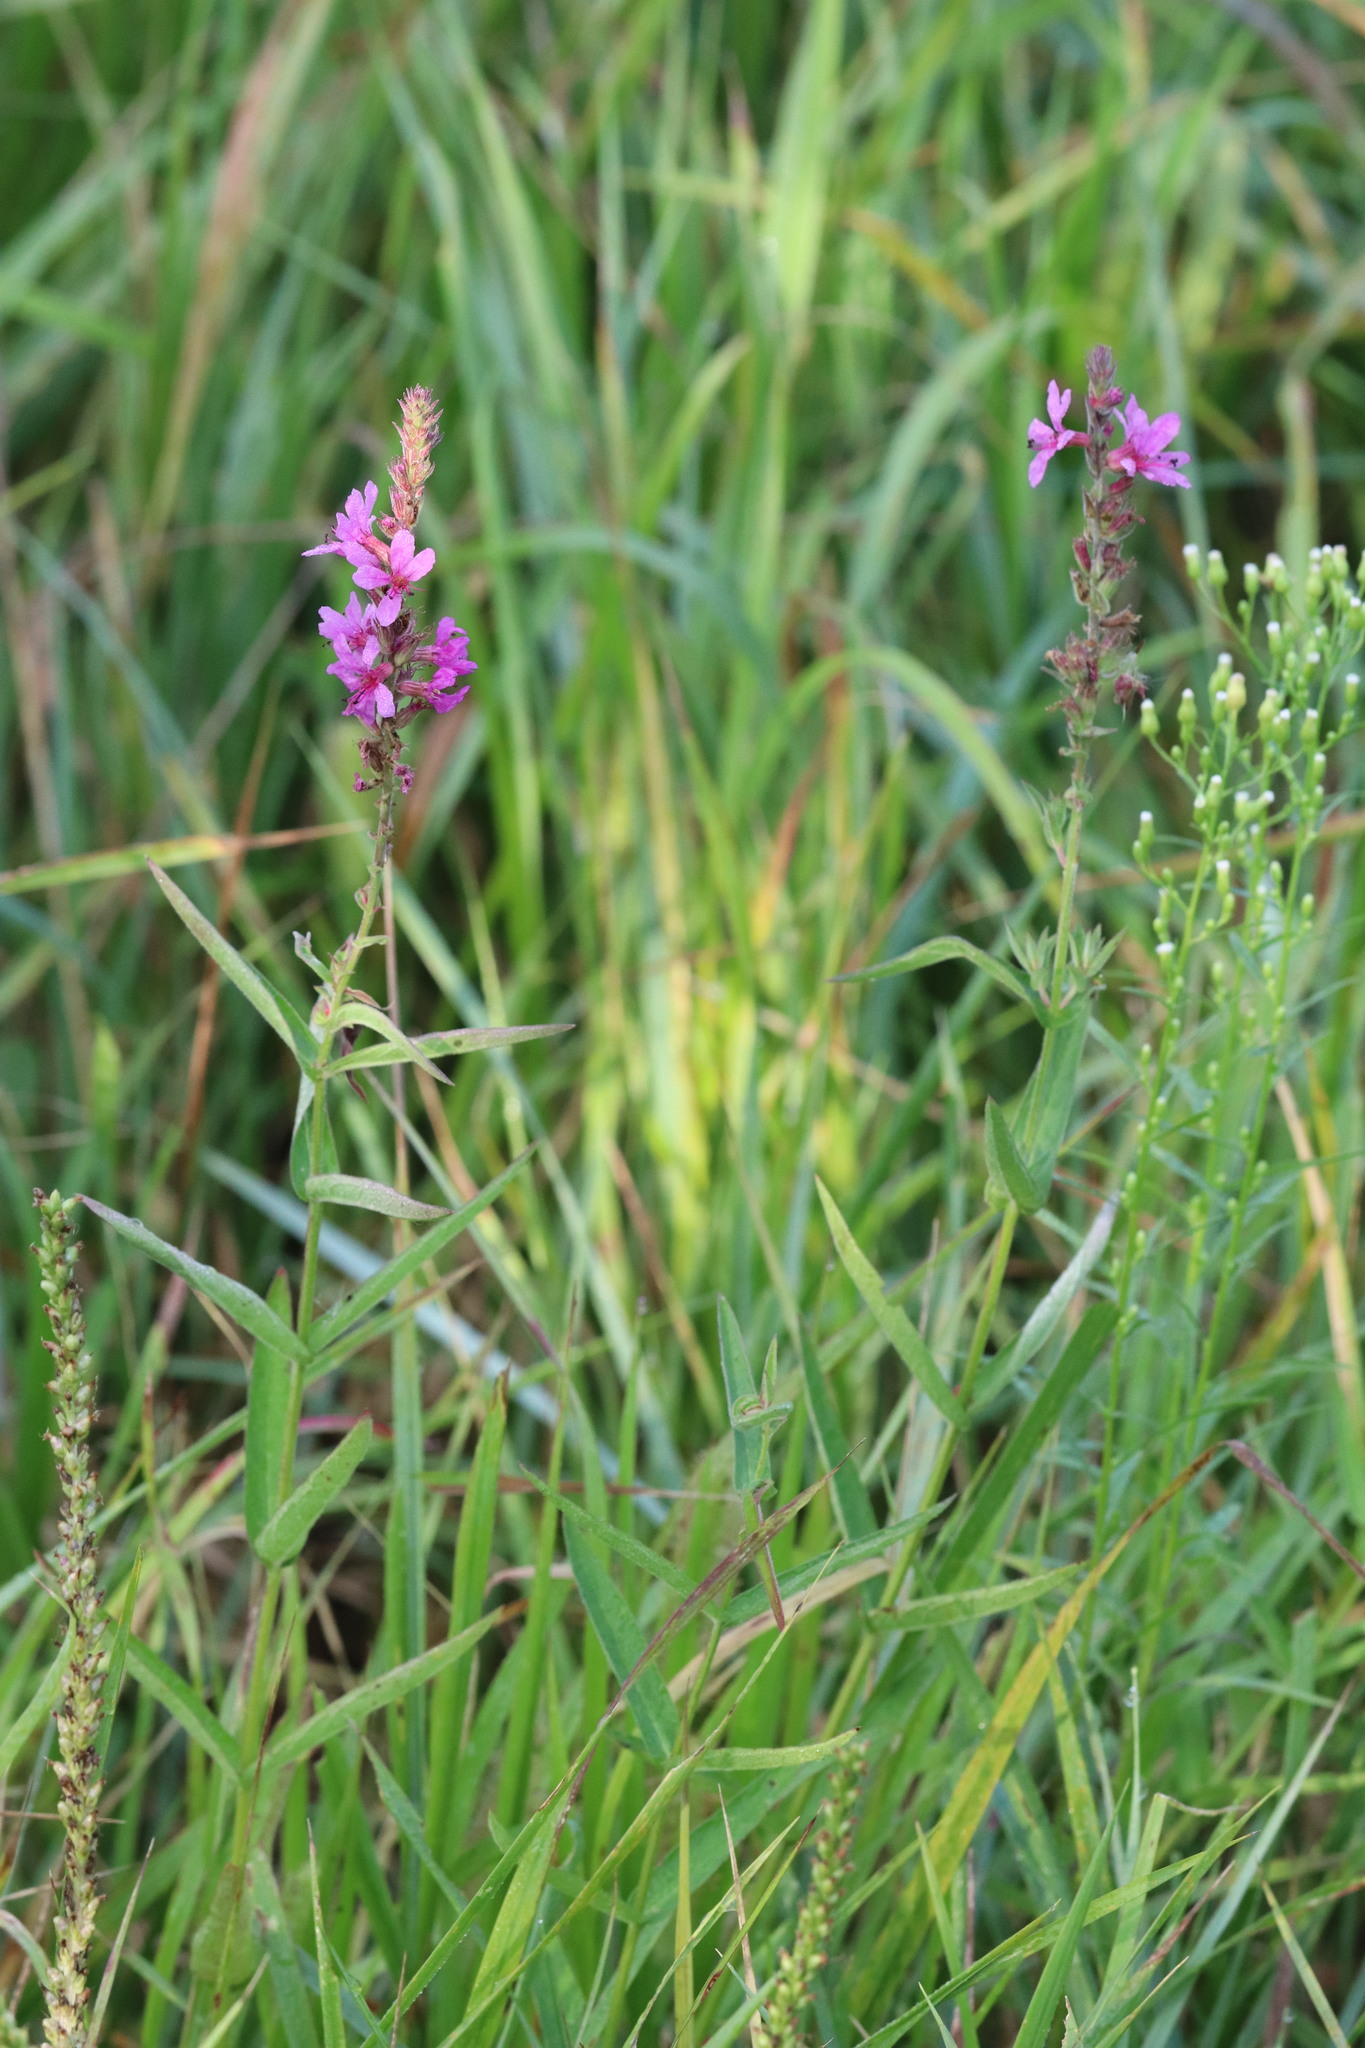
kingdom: Plantae
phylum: Tracheophyta
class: Magnoliopsida
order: Myrtales
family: Lythraceae
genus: Lythrum
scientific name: Lythrum salicaria
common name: Purple loosestrife
